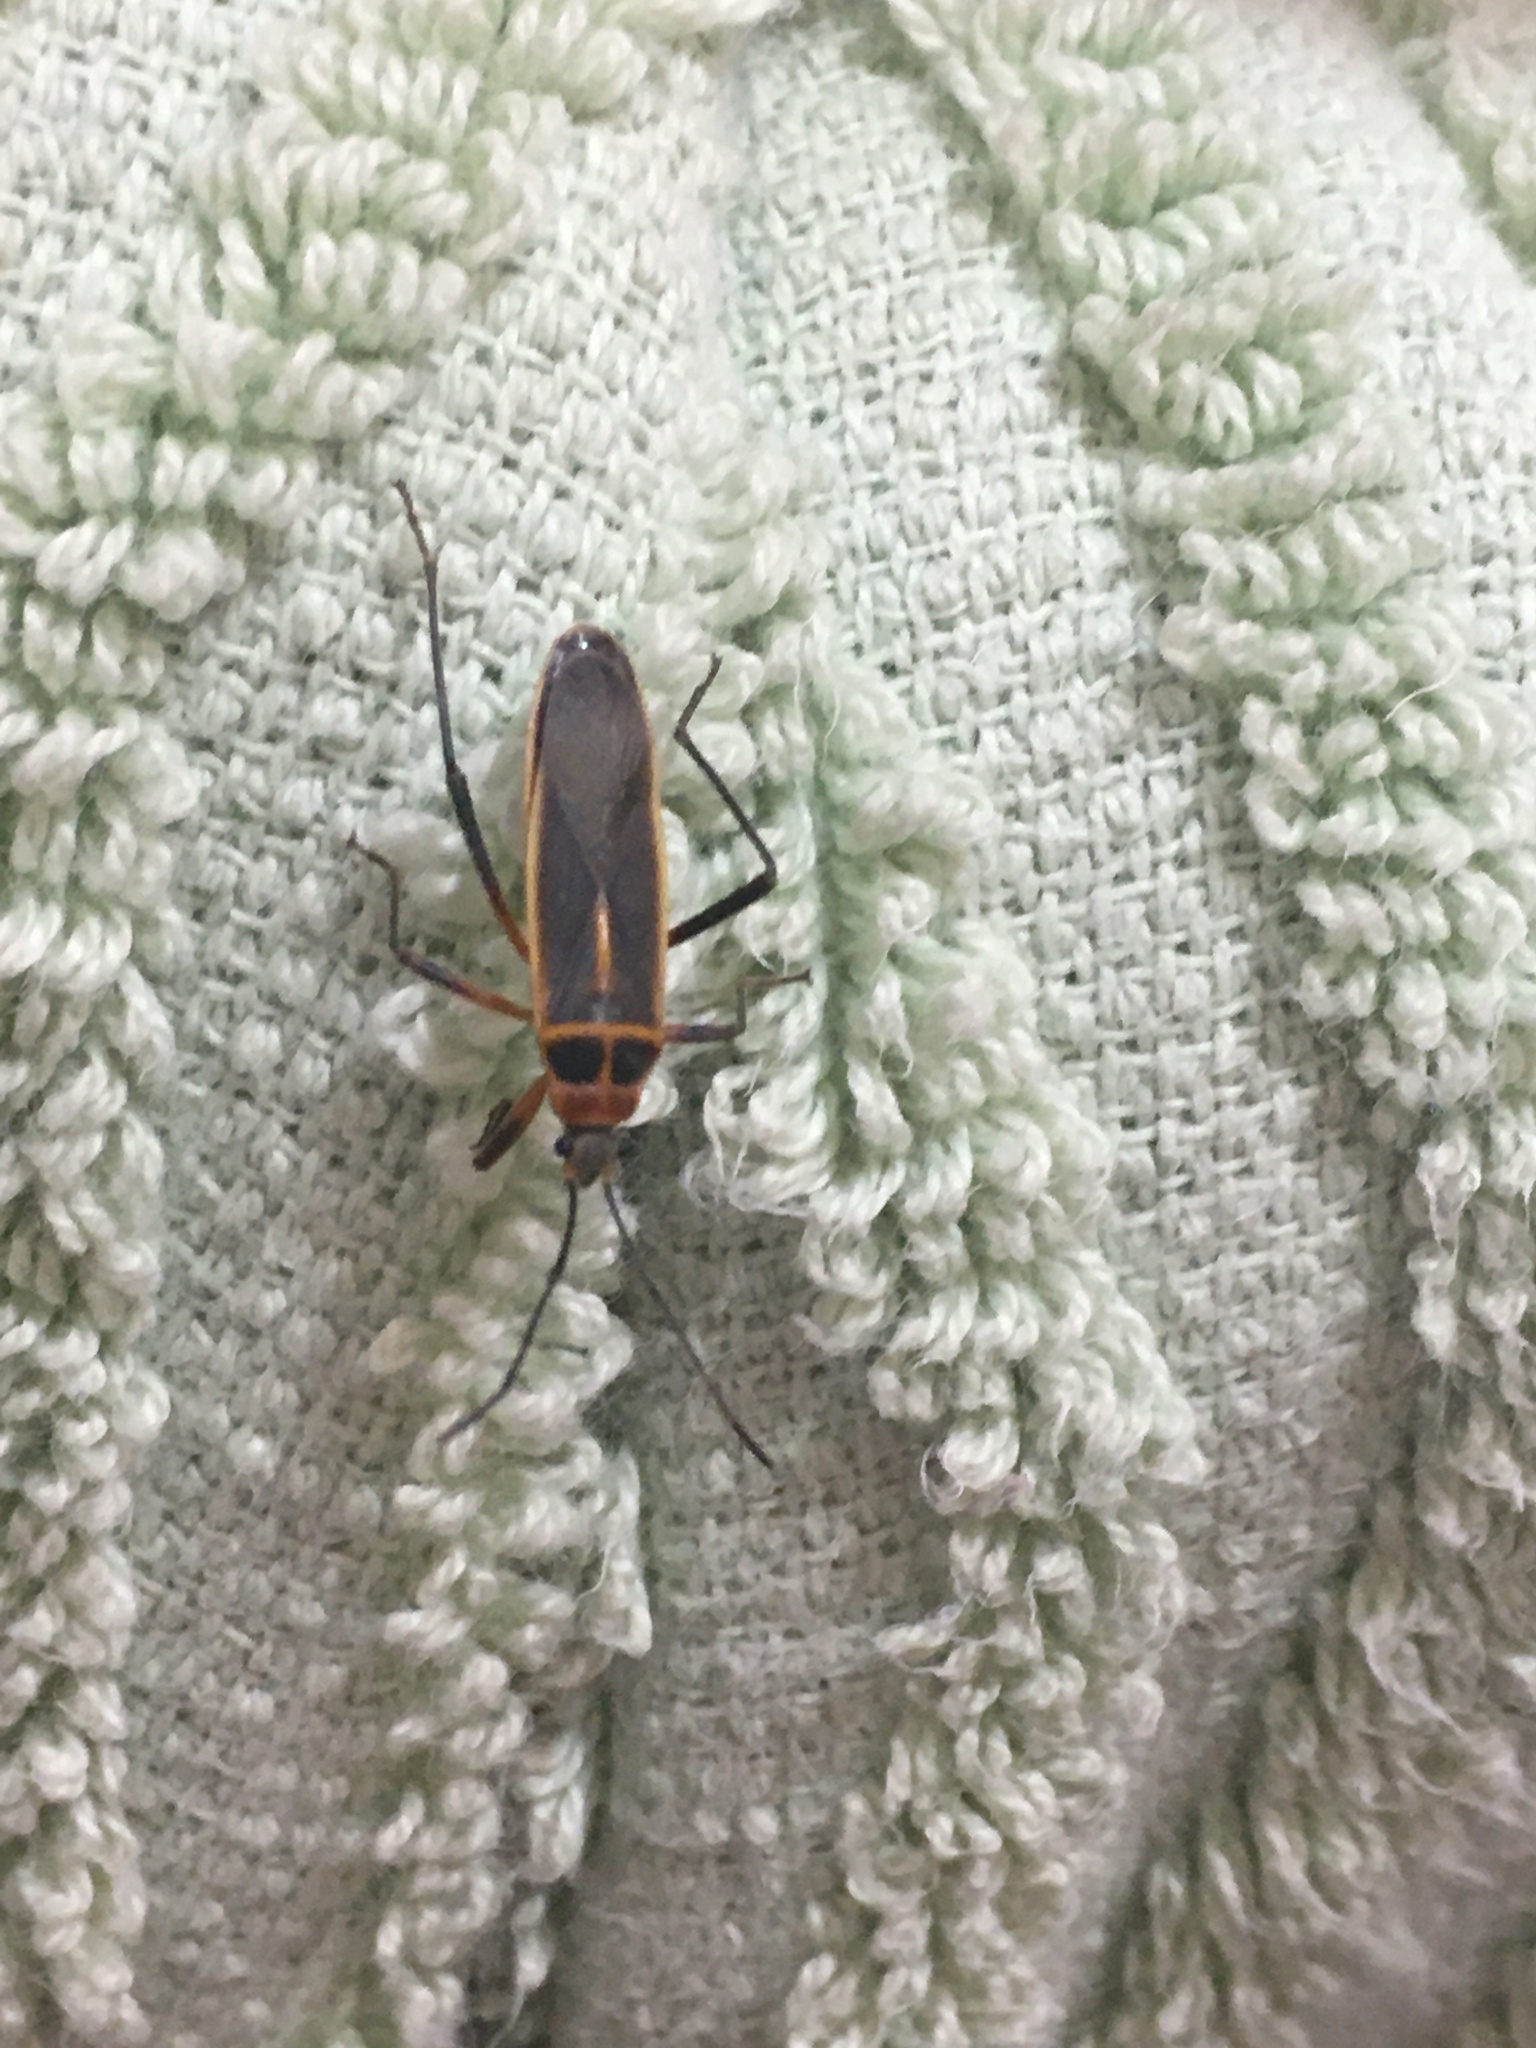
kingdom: Animalia
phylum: Arthropoda
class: Insecta
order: Hemiptera
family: Largidae
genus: Stenomacra
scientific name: Stenomacra marginella
